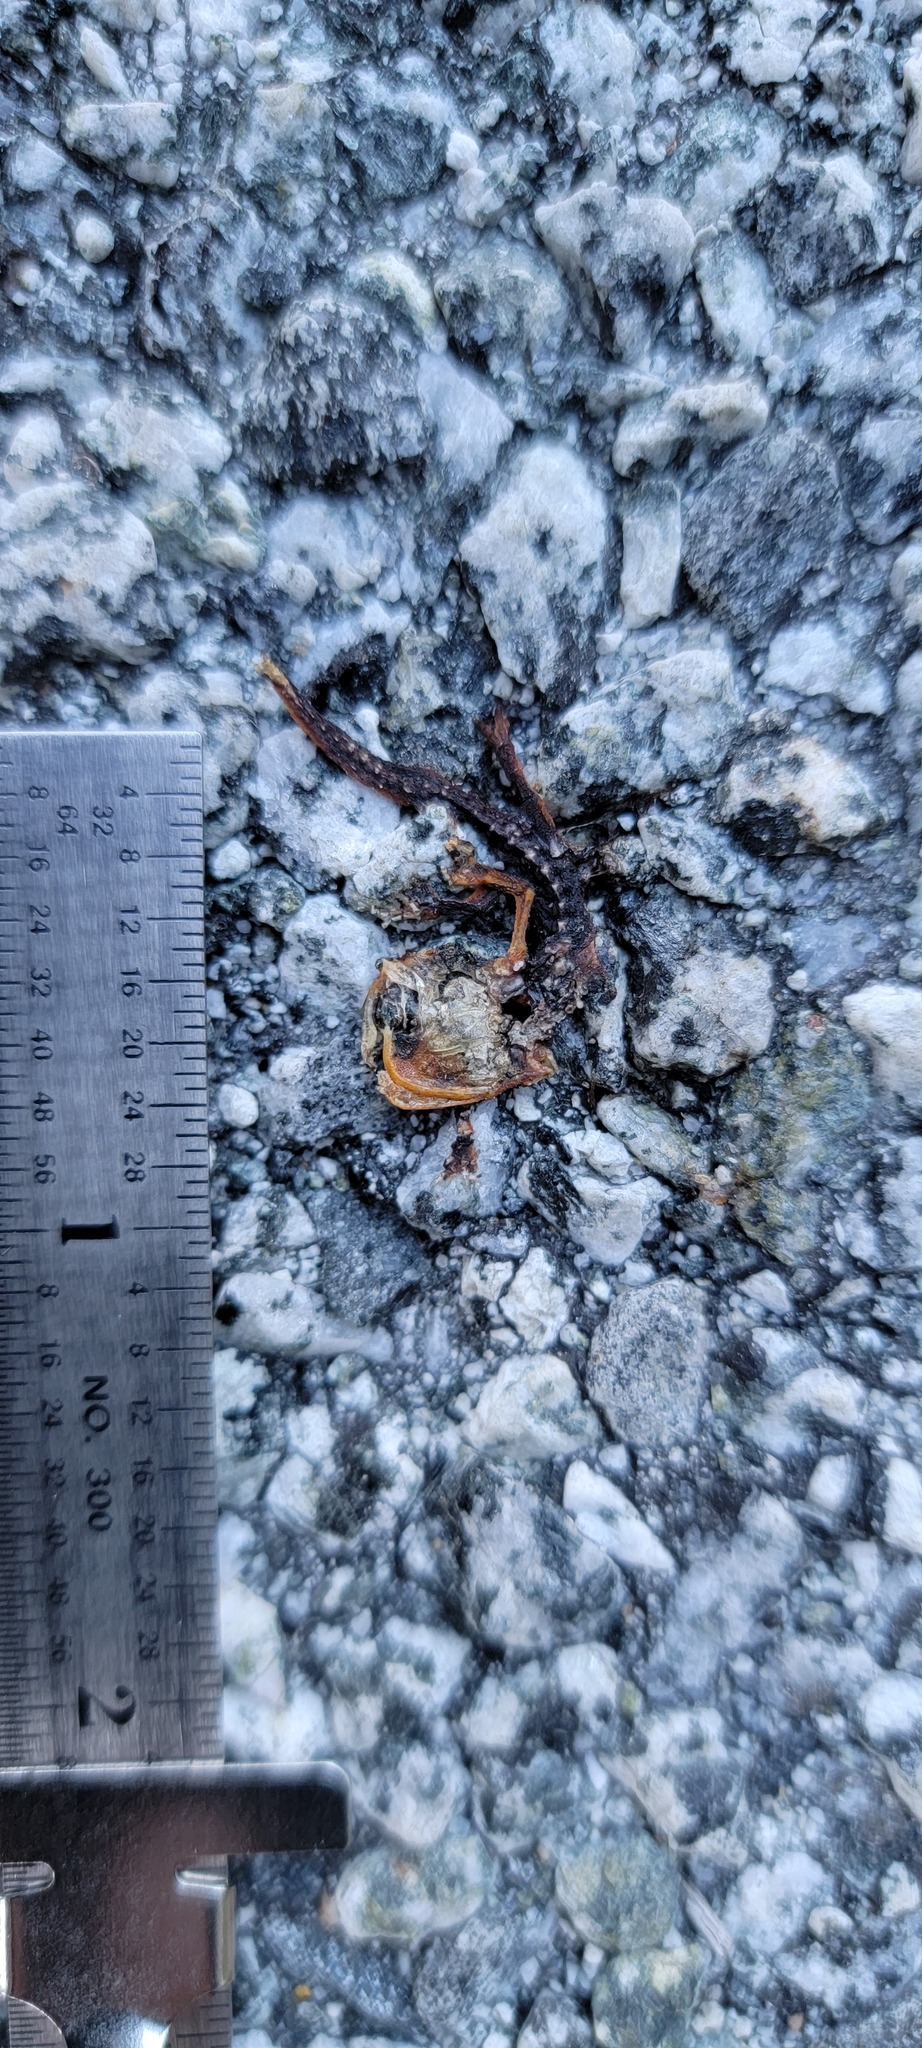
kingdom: Animalia
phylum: Chordata
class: Amphibia
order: Caudata
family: Salamandridae
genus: Taricha
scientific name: Taricha
